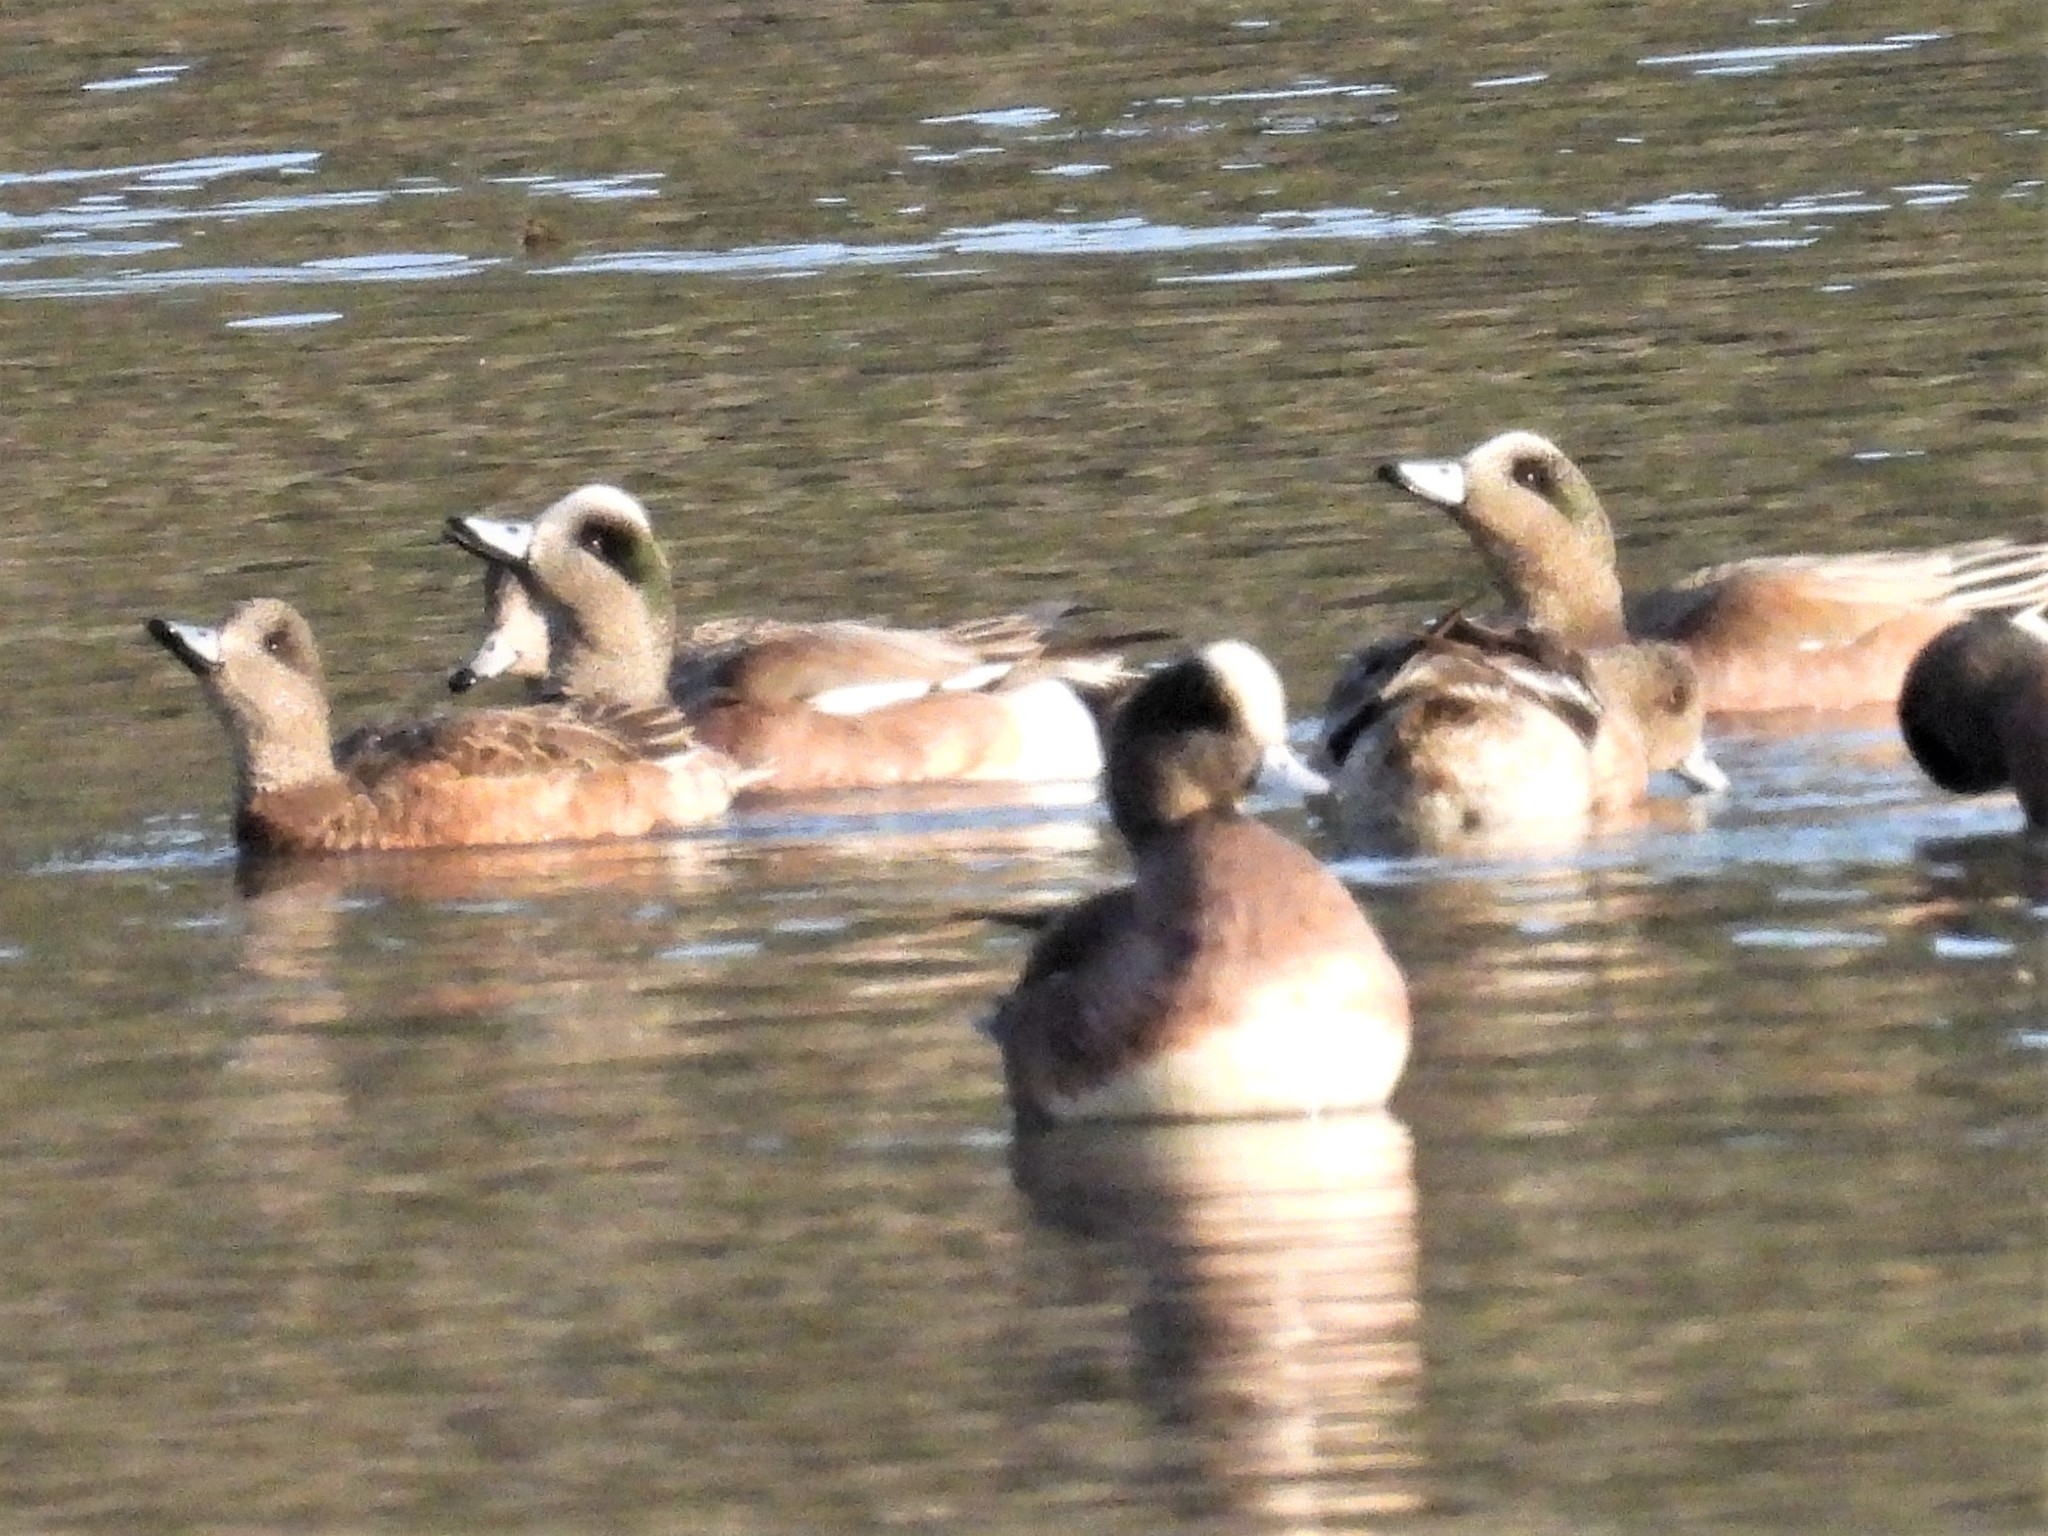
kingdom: Animalia
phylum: Chordata
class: Aves
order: Anseriformes
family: Anatidae
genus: Mareca
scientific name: Mareca americana
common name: American wigeon
